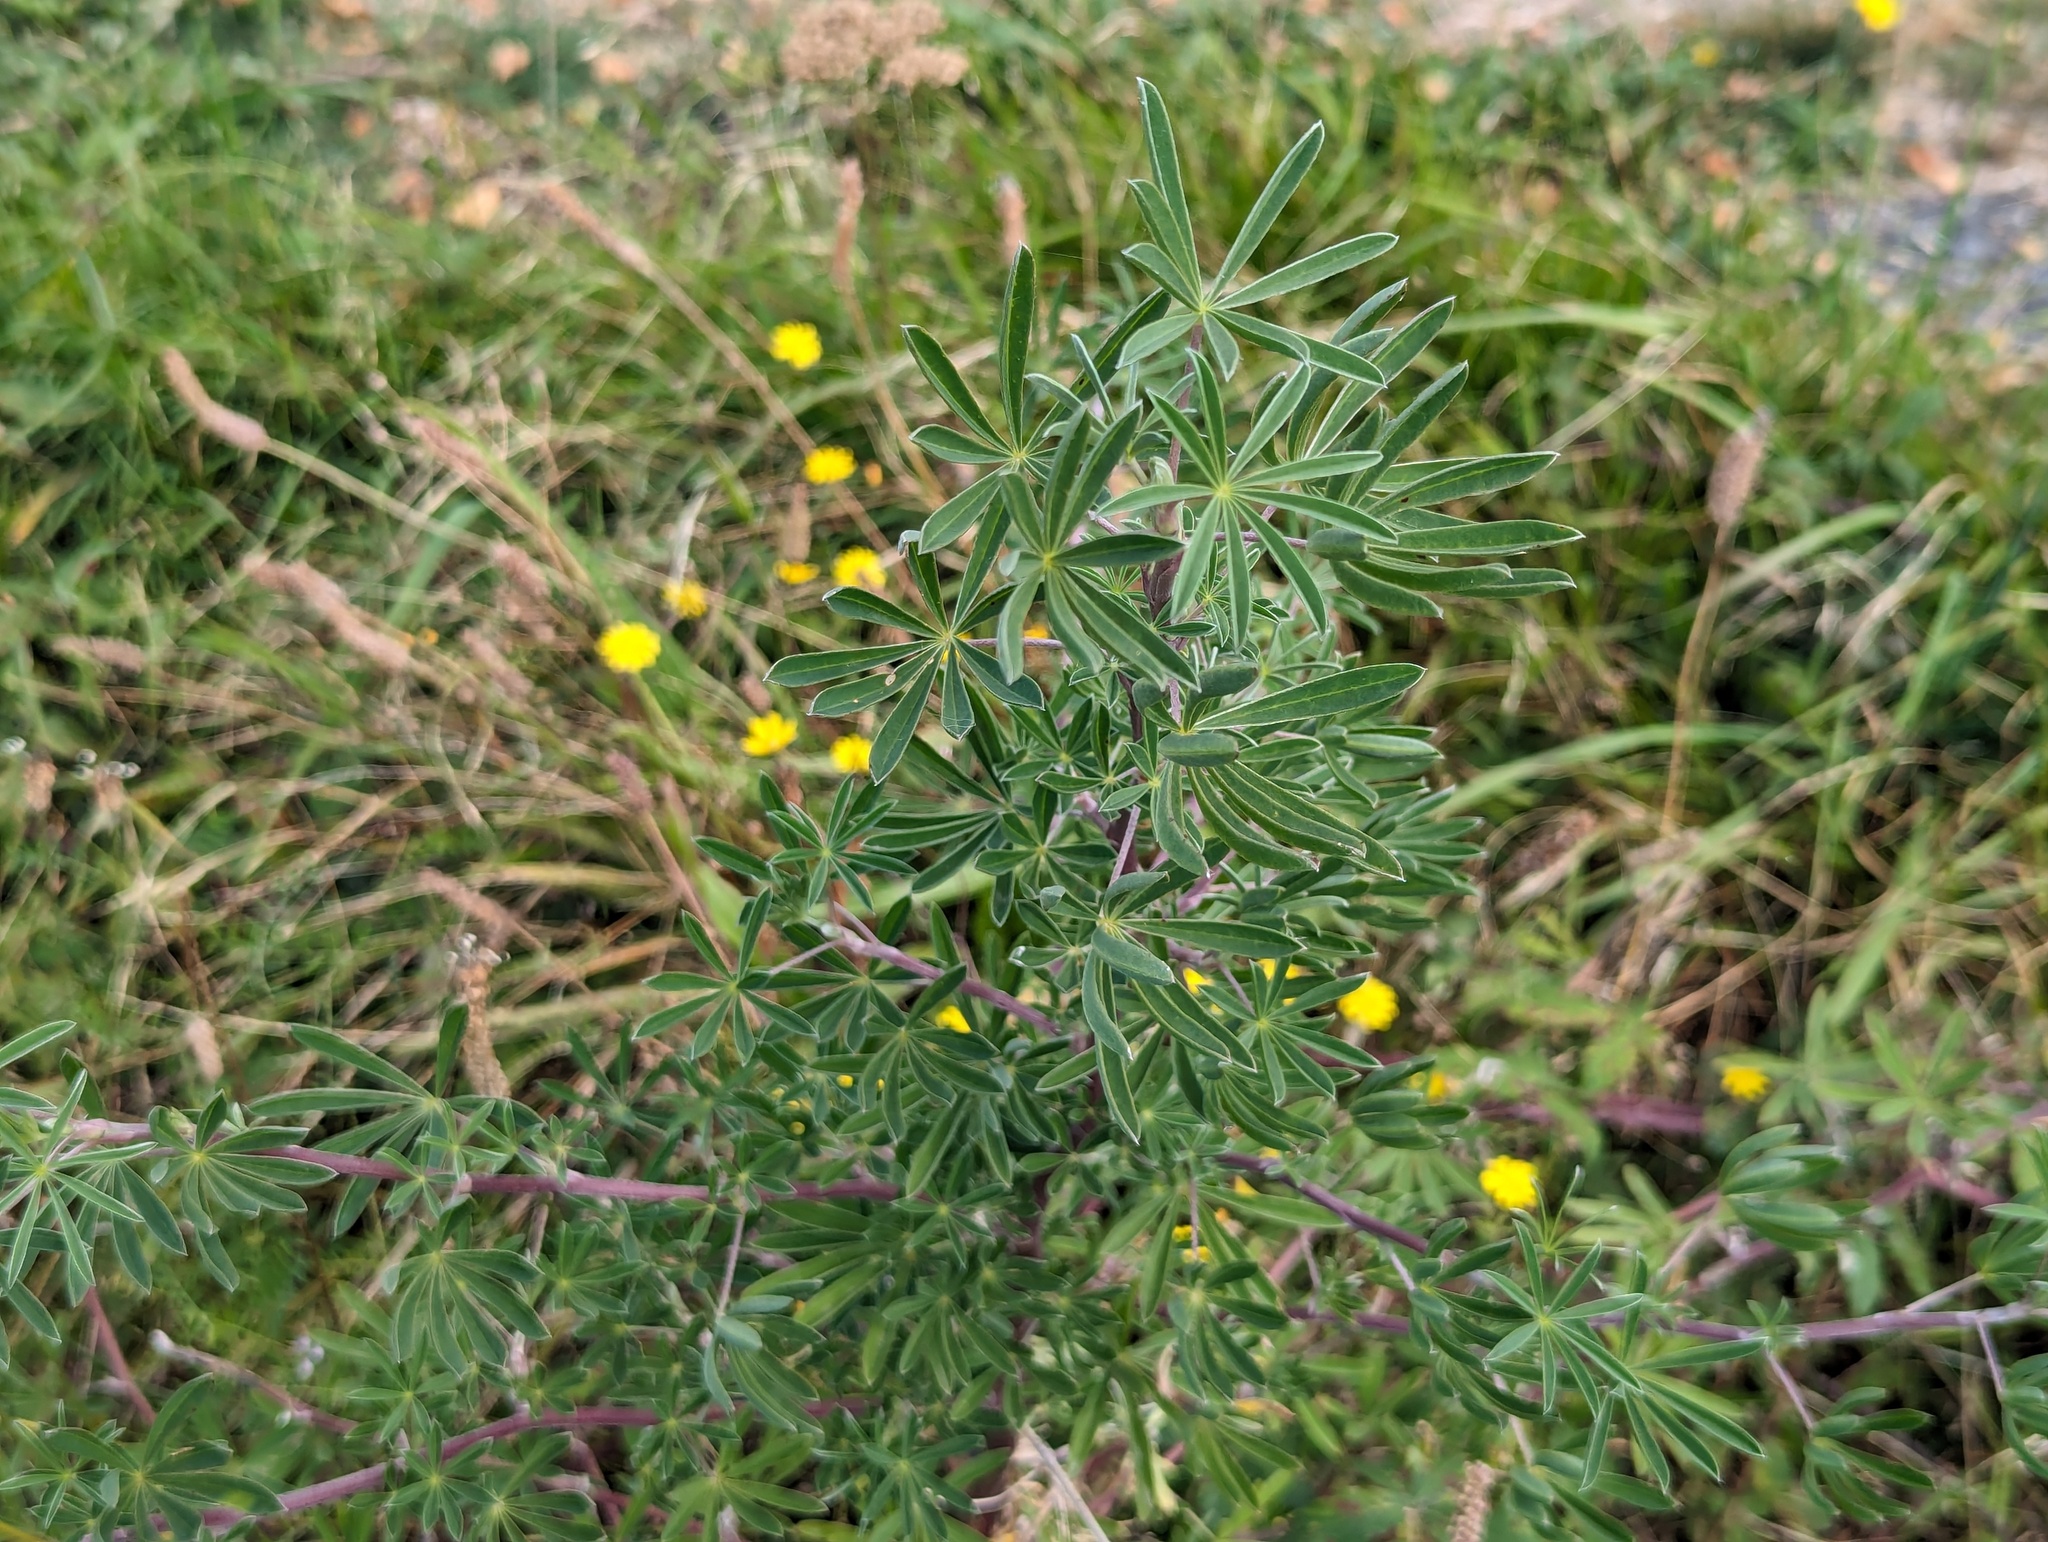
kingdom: Plantae
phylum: Tracheophyta
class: Magnoliopsida
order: Fabales
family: Fabaceae
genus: Lupinus
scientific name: Lupinus arboreus
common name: Yellow bush lupine
